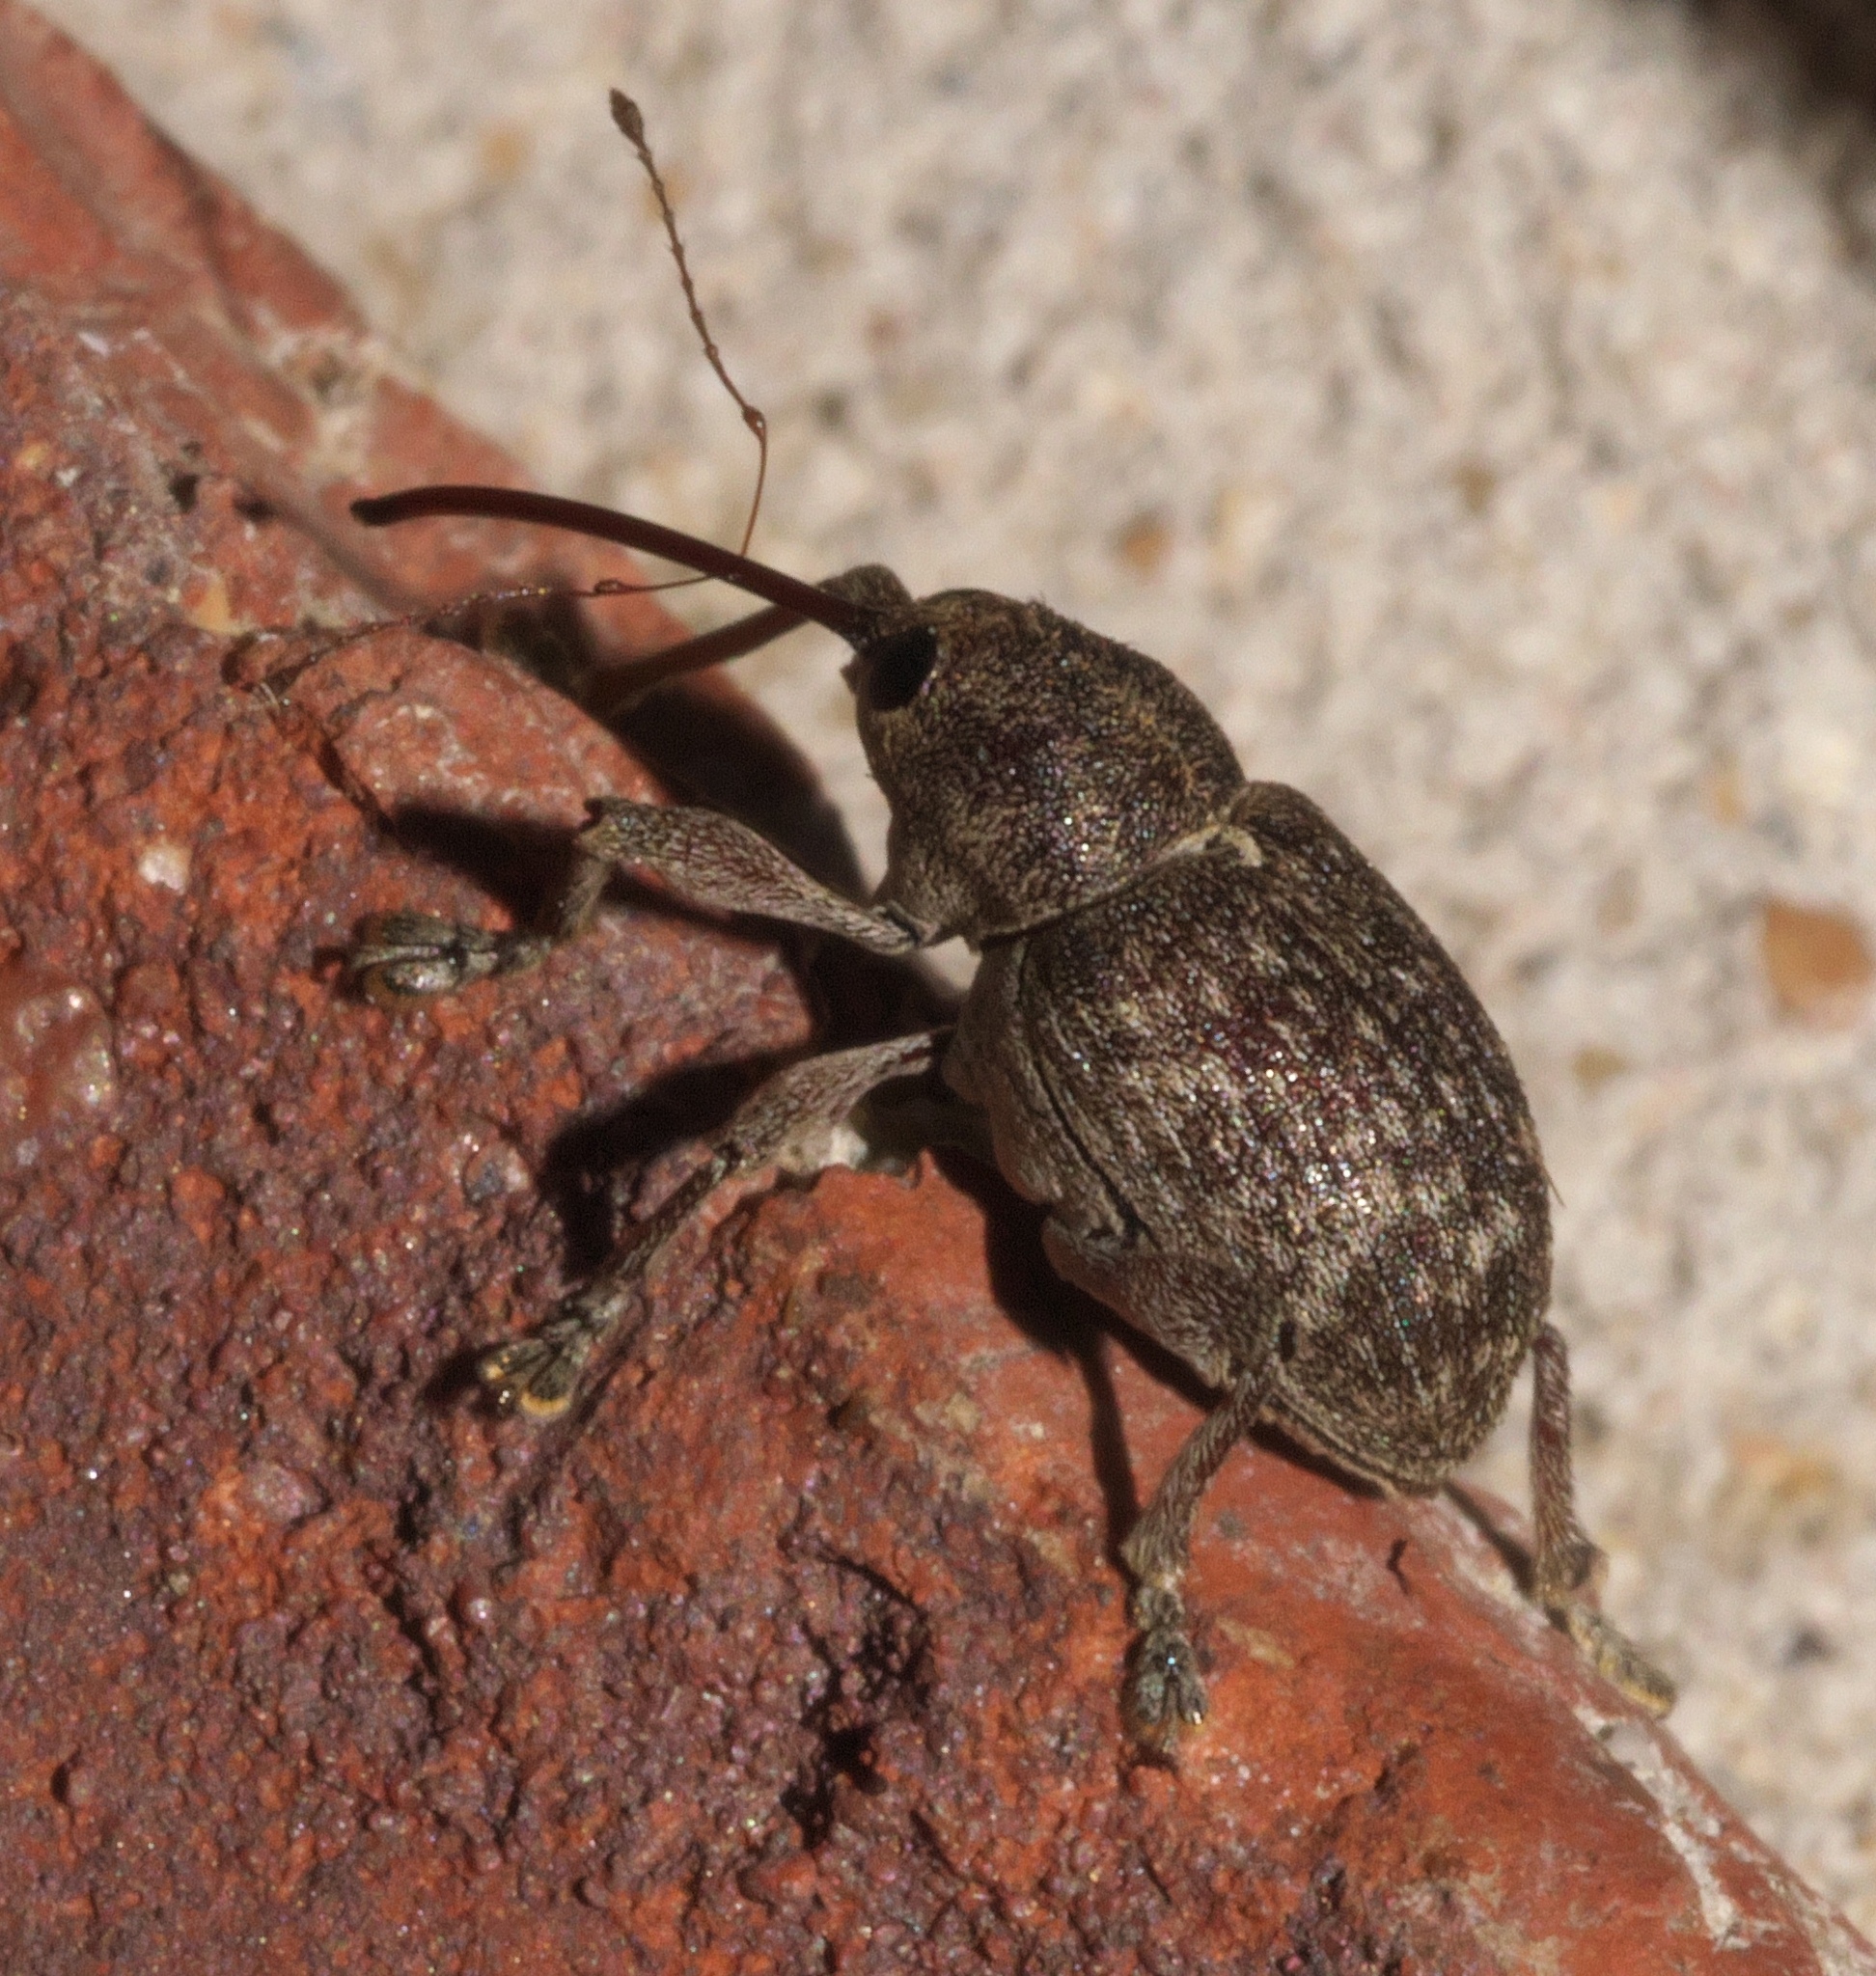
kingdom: Animalia
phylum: Arthropoda
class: Insecta
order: Coleoptera
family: Curculionidae
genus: Curculio
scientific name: Curculio
